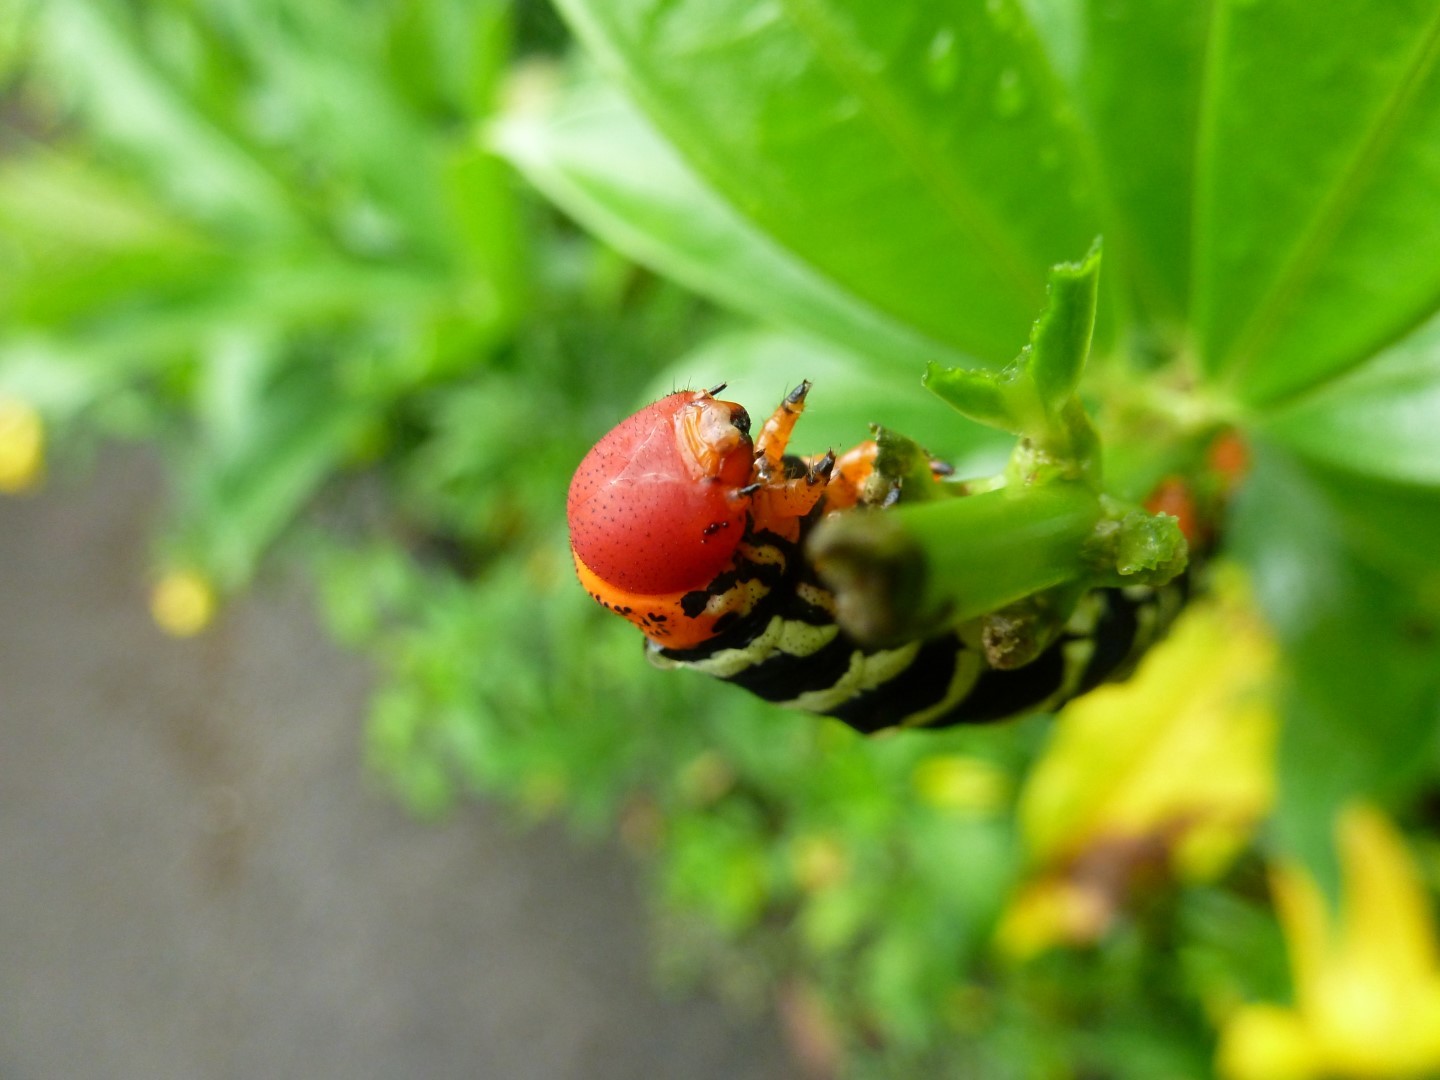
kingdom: Animalia
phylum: Arthropoda
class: Insecta
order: Lepidoptera
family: Sphingidae
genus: Pseudosphinx
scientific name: Pseudosphinx tetrio
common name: Tetrio sphinx
